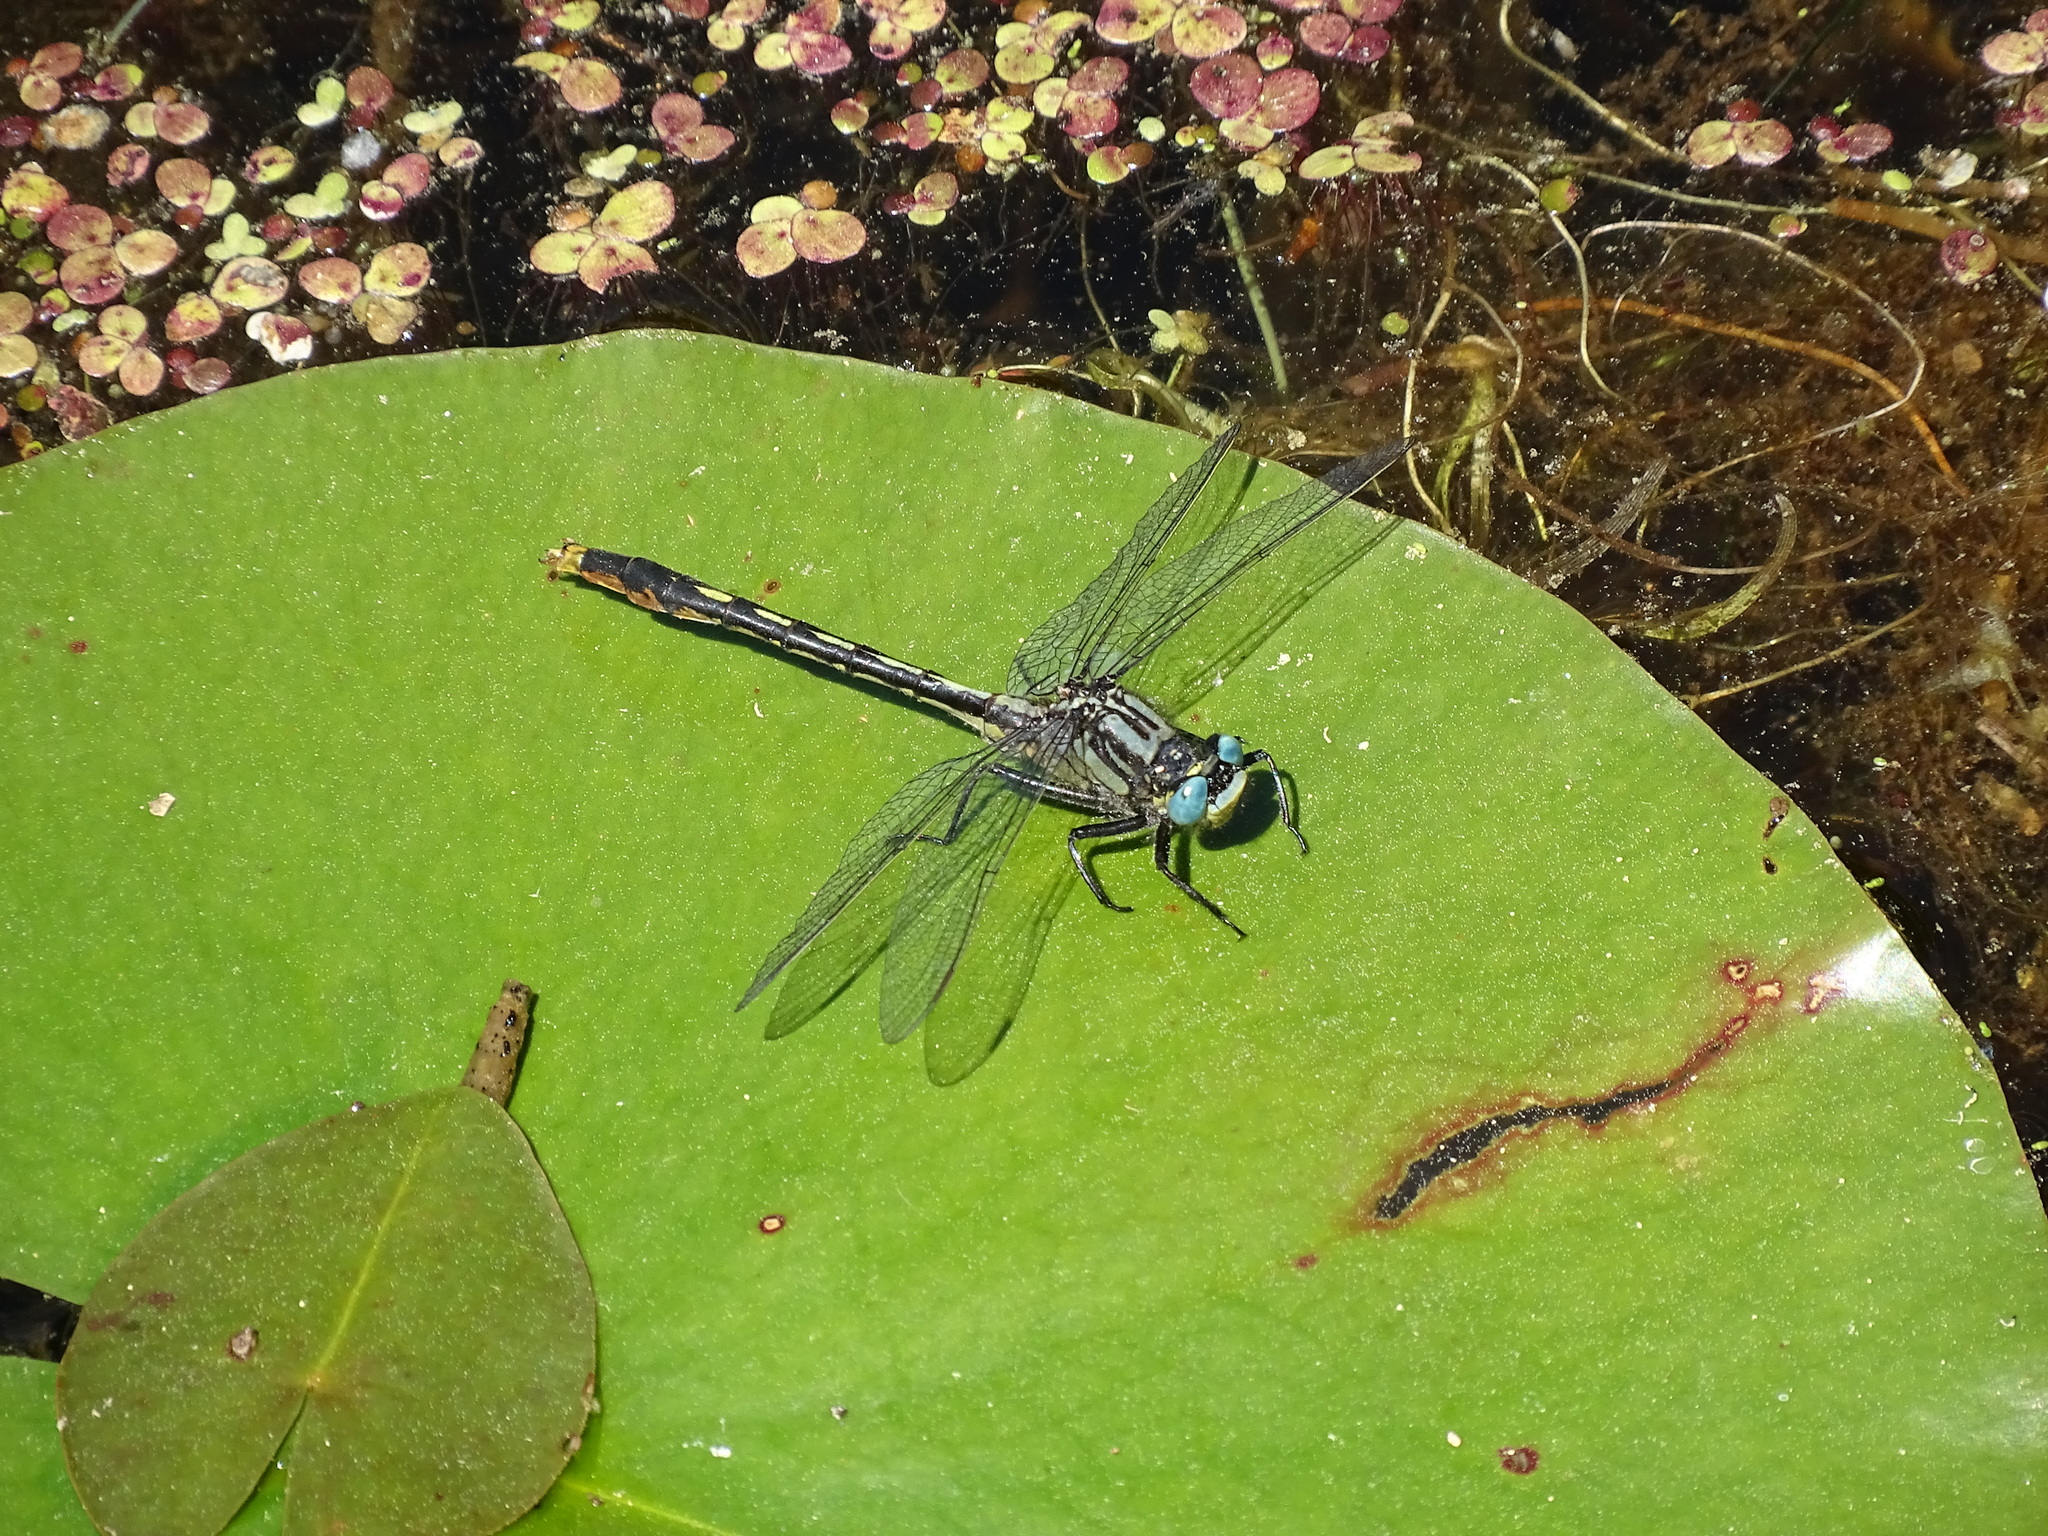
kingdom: Animalia
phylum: Arthropoda
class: Insecta
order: Odonata
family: Gomphidae
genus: Arigomphus
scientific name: Arigomphus furcifer
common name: Lilypad clubtail
